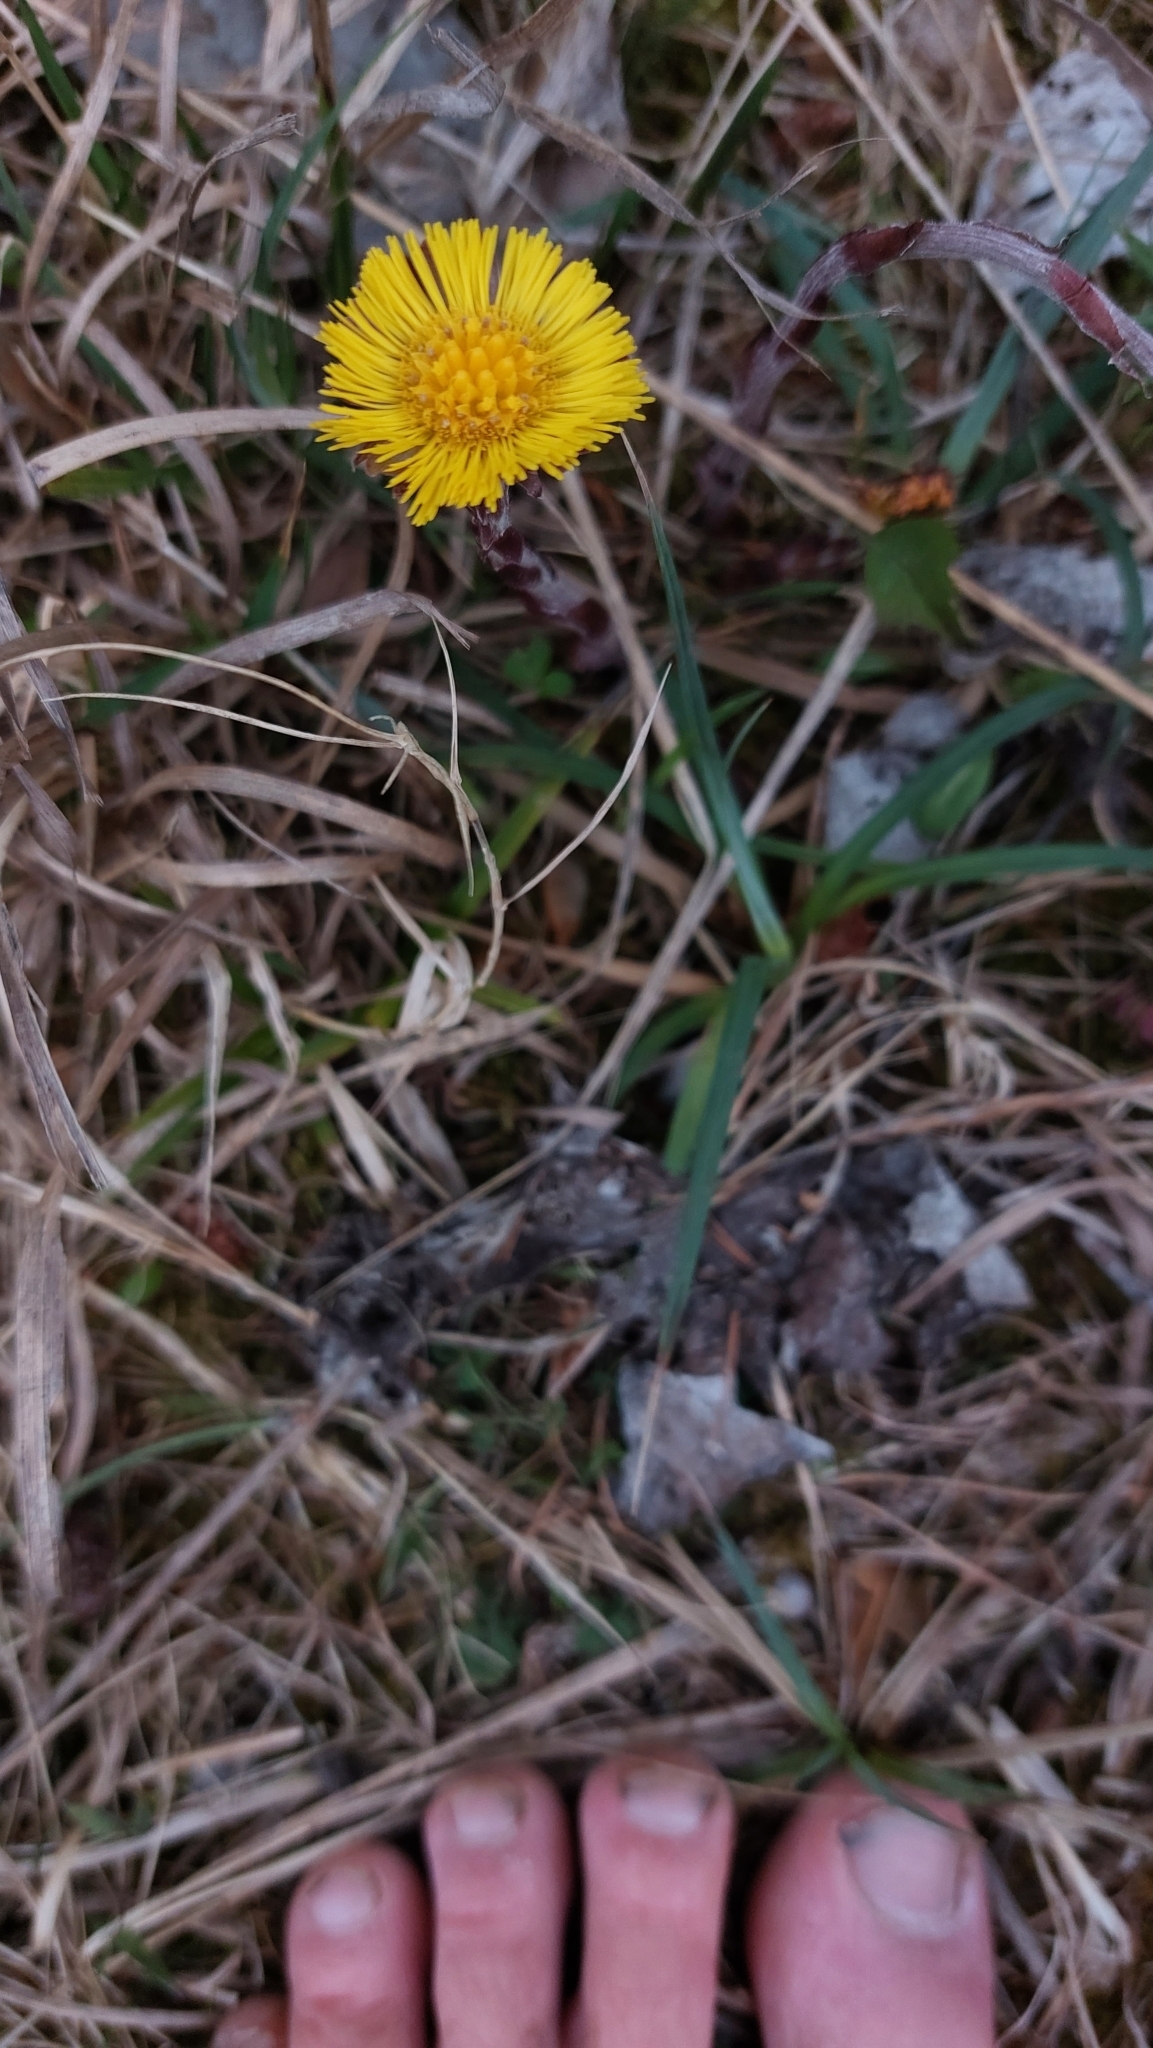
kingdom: Plantae
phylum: Tracheophyta
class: Magnoliopsida
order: Asterales
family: Asteraceae
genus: Tussilago
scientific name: Tussilago farfara
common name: Coltsfoot
